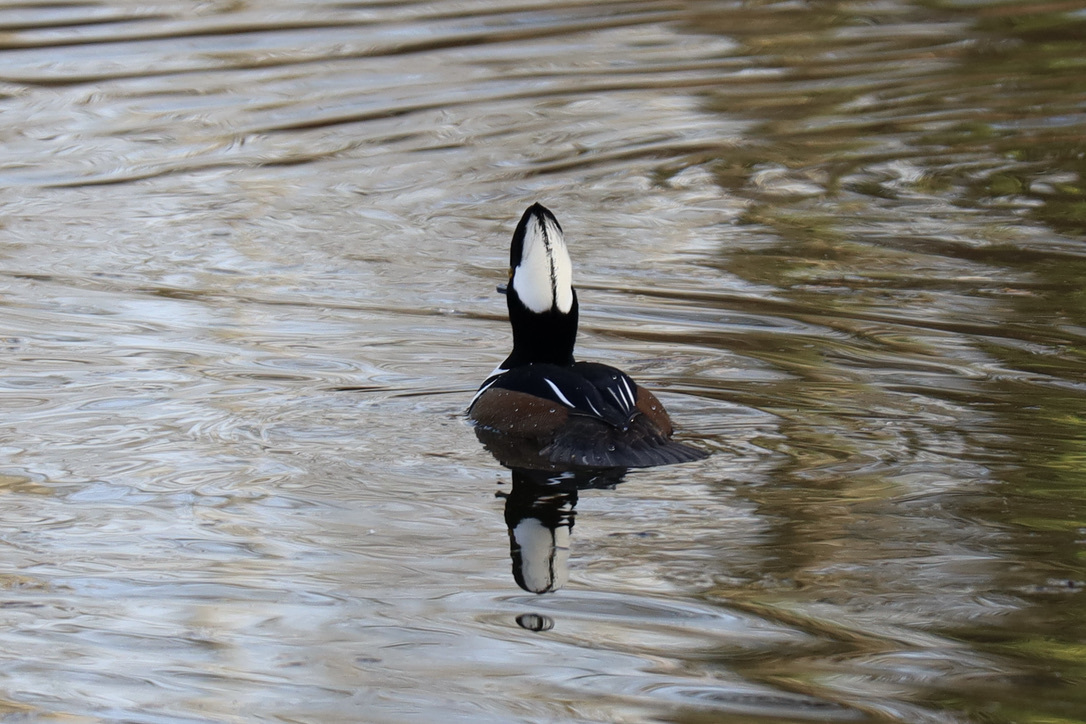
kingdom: Animalia
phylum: Chordata
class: Aves
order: Anseriformes
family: Anatidae
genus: Lophodytes
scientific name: Lophodytes cucullatus
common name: Hooded merganser
